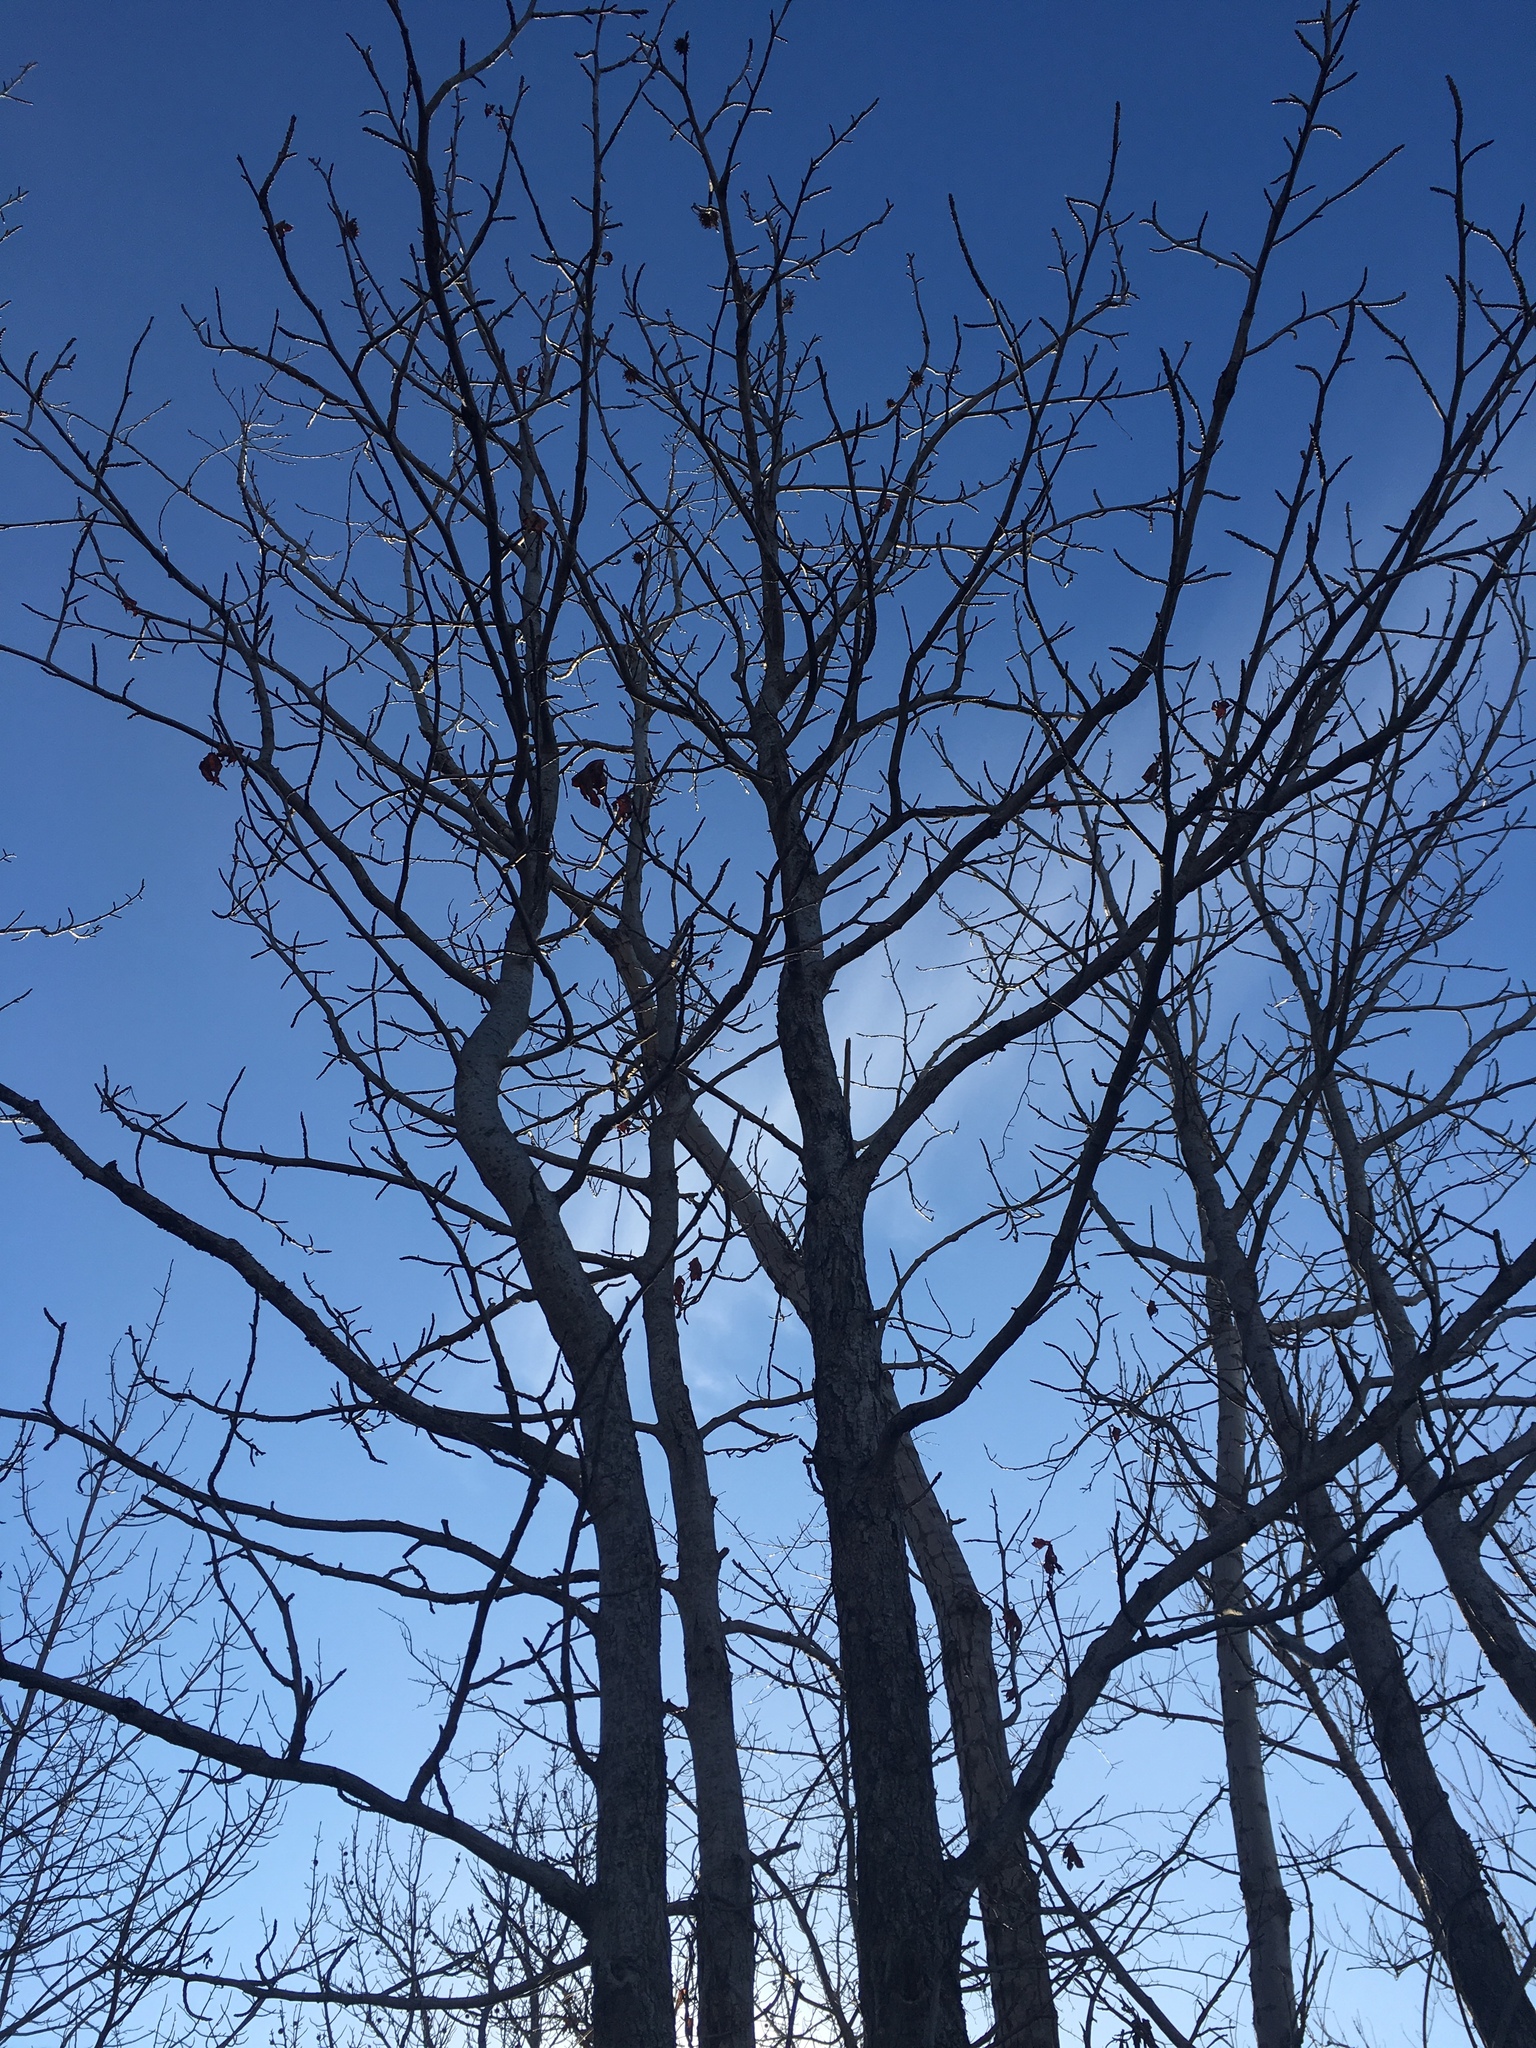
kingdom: Plantae
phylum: Tracheophyta
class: Magnoliopsida
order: Saxifragales
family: Altingiaceae
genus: Liquidambar
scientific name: Liquidambar styraciflua
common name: Sweet gum
